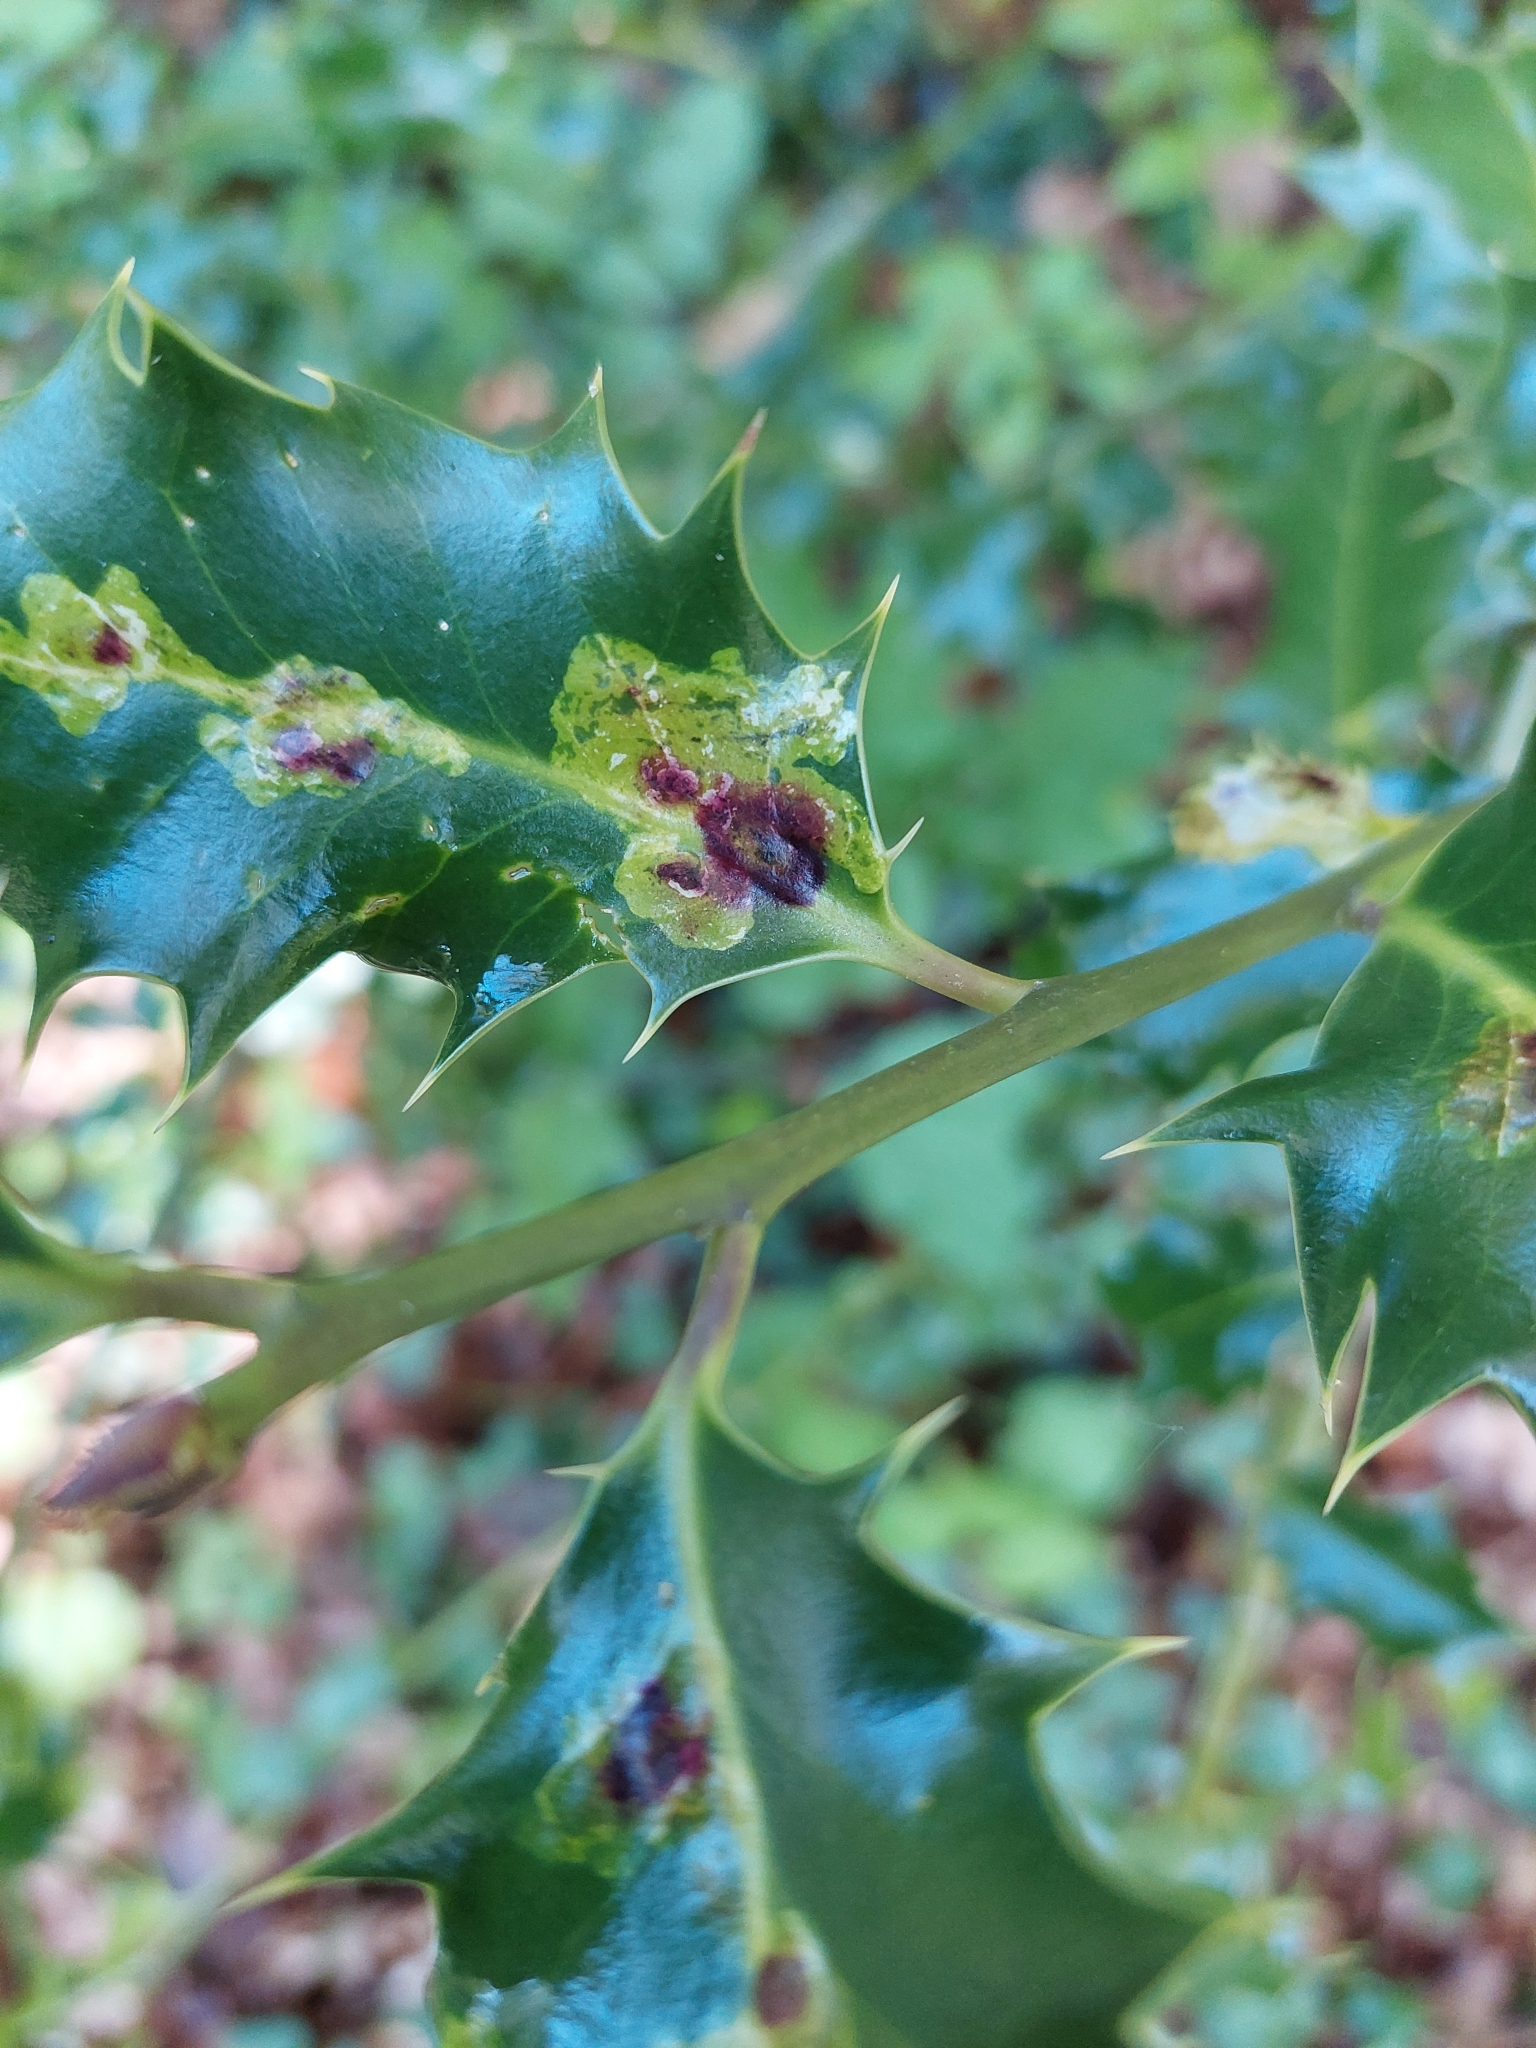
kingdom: Animalia
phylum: Arthropoda
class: Insecta
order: Diptera
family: Agromyzidae
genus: Phytomyza
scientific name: Phytomyza ilicis
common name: Holly leafminer
